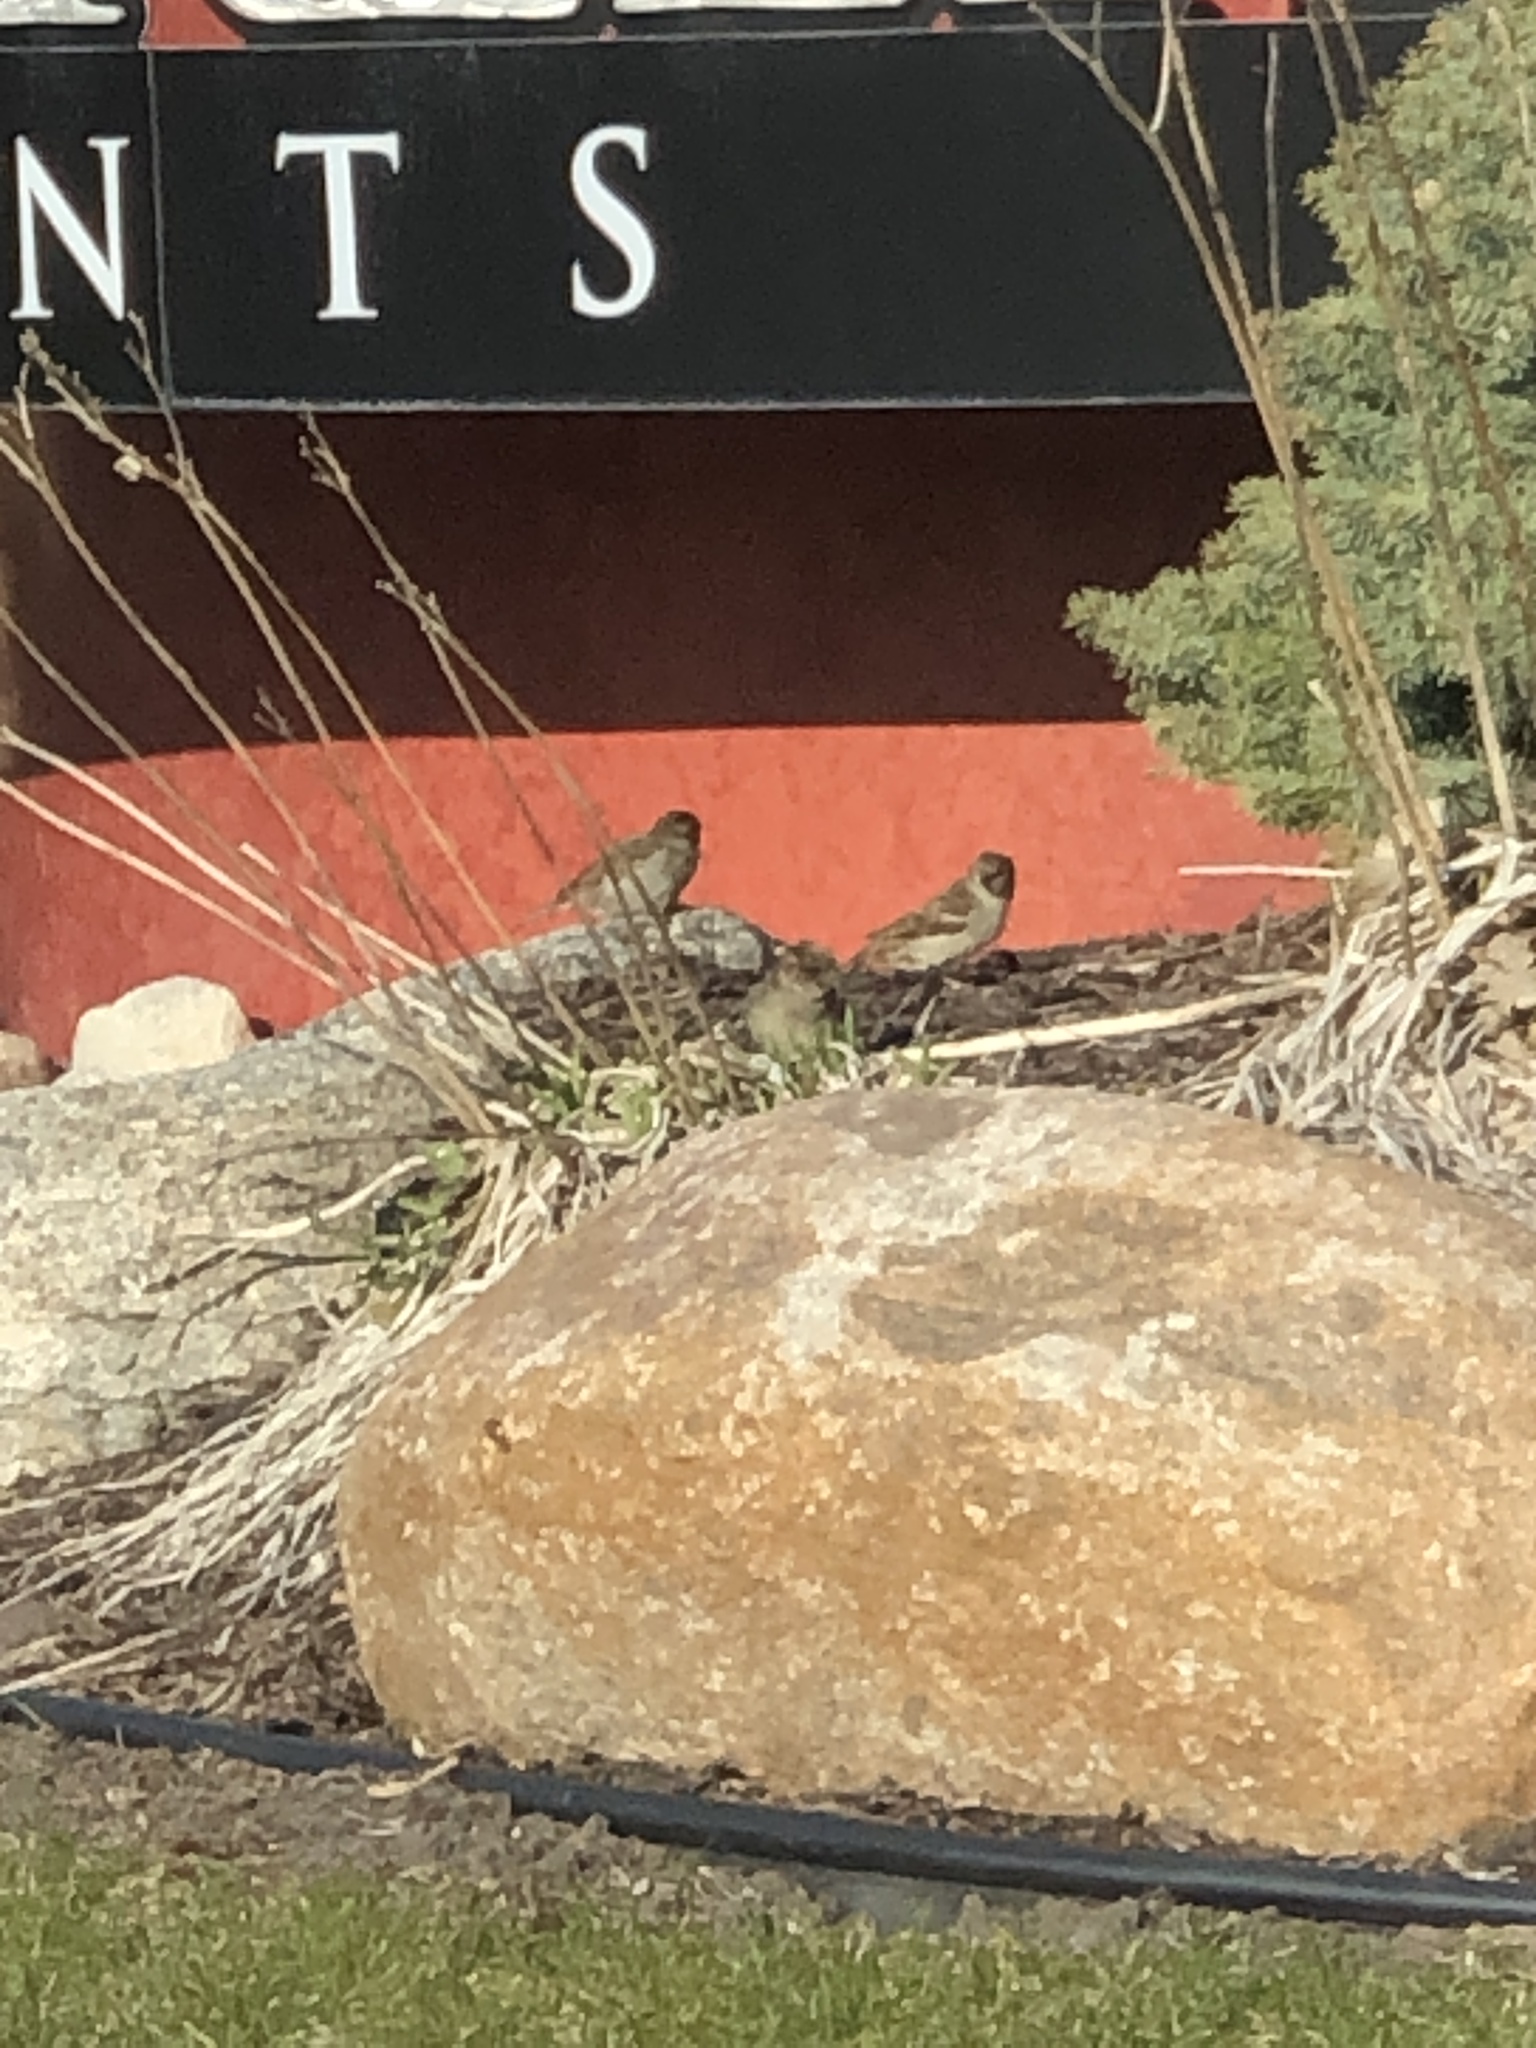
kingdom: Animalia
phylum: Chordata
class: Aves
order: Passeriformes
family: Passeridae
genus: Passer
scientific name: Passer domesticus
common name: House sparrow
